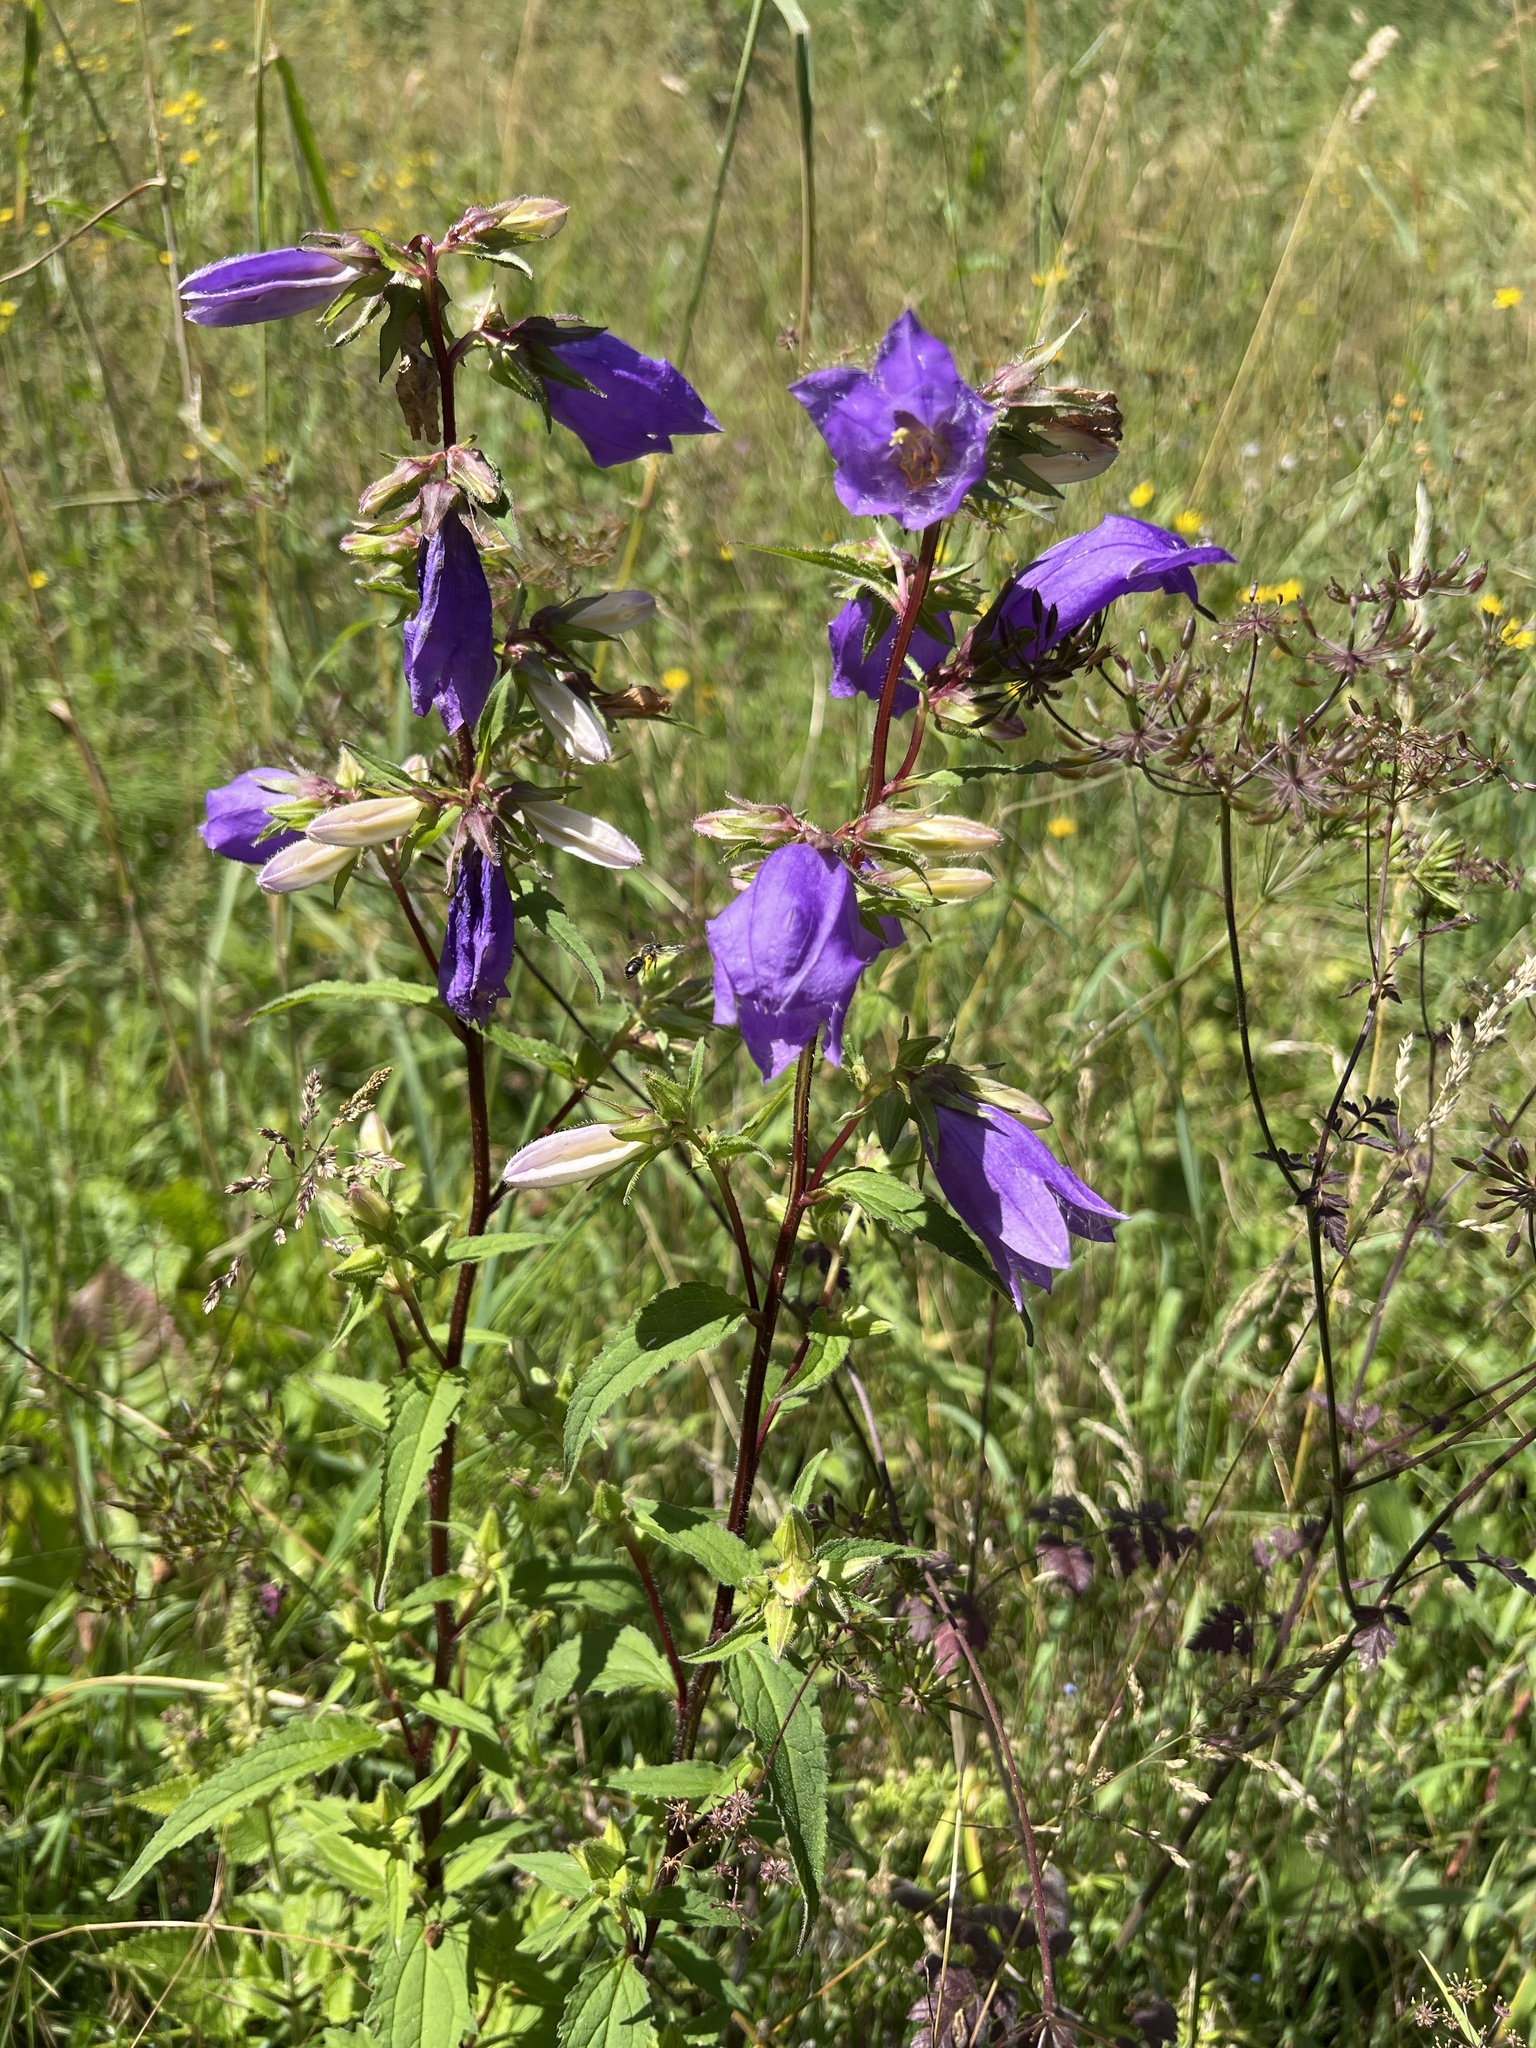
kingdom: Plantae
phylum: Tracheophyta
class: Magnoliopsida
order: Asterales
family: Campanulaceae
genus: Campanula
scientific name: Campanula trachelium
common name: Nettle-leaved bellflower
